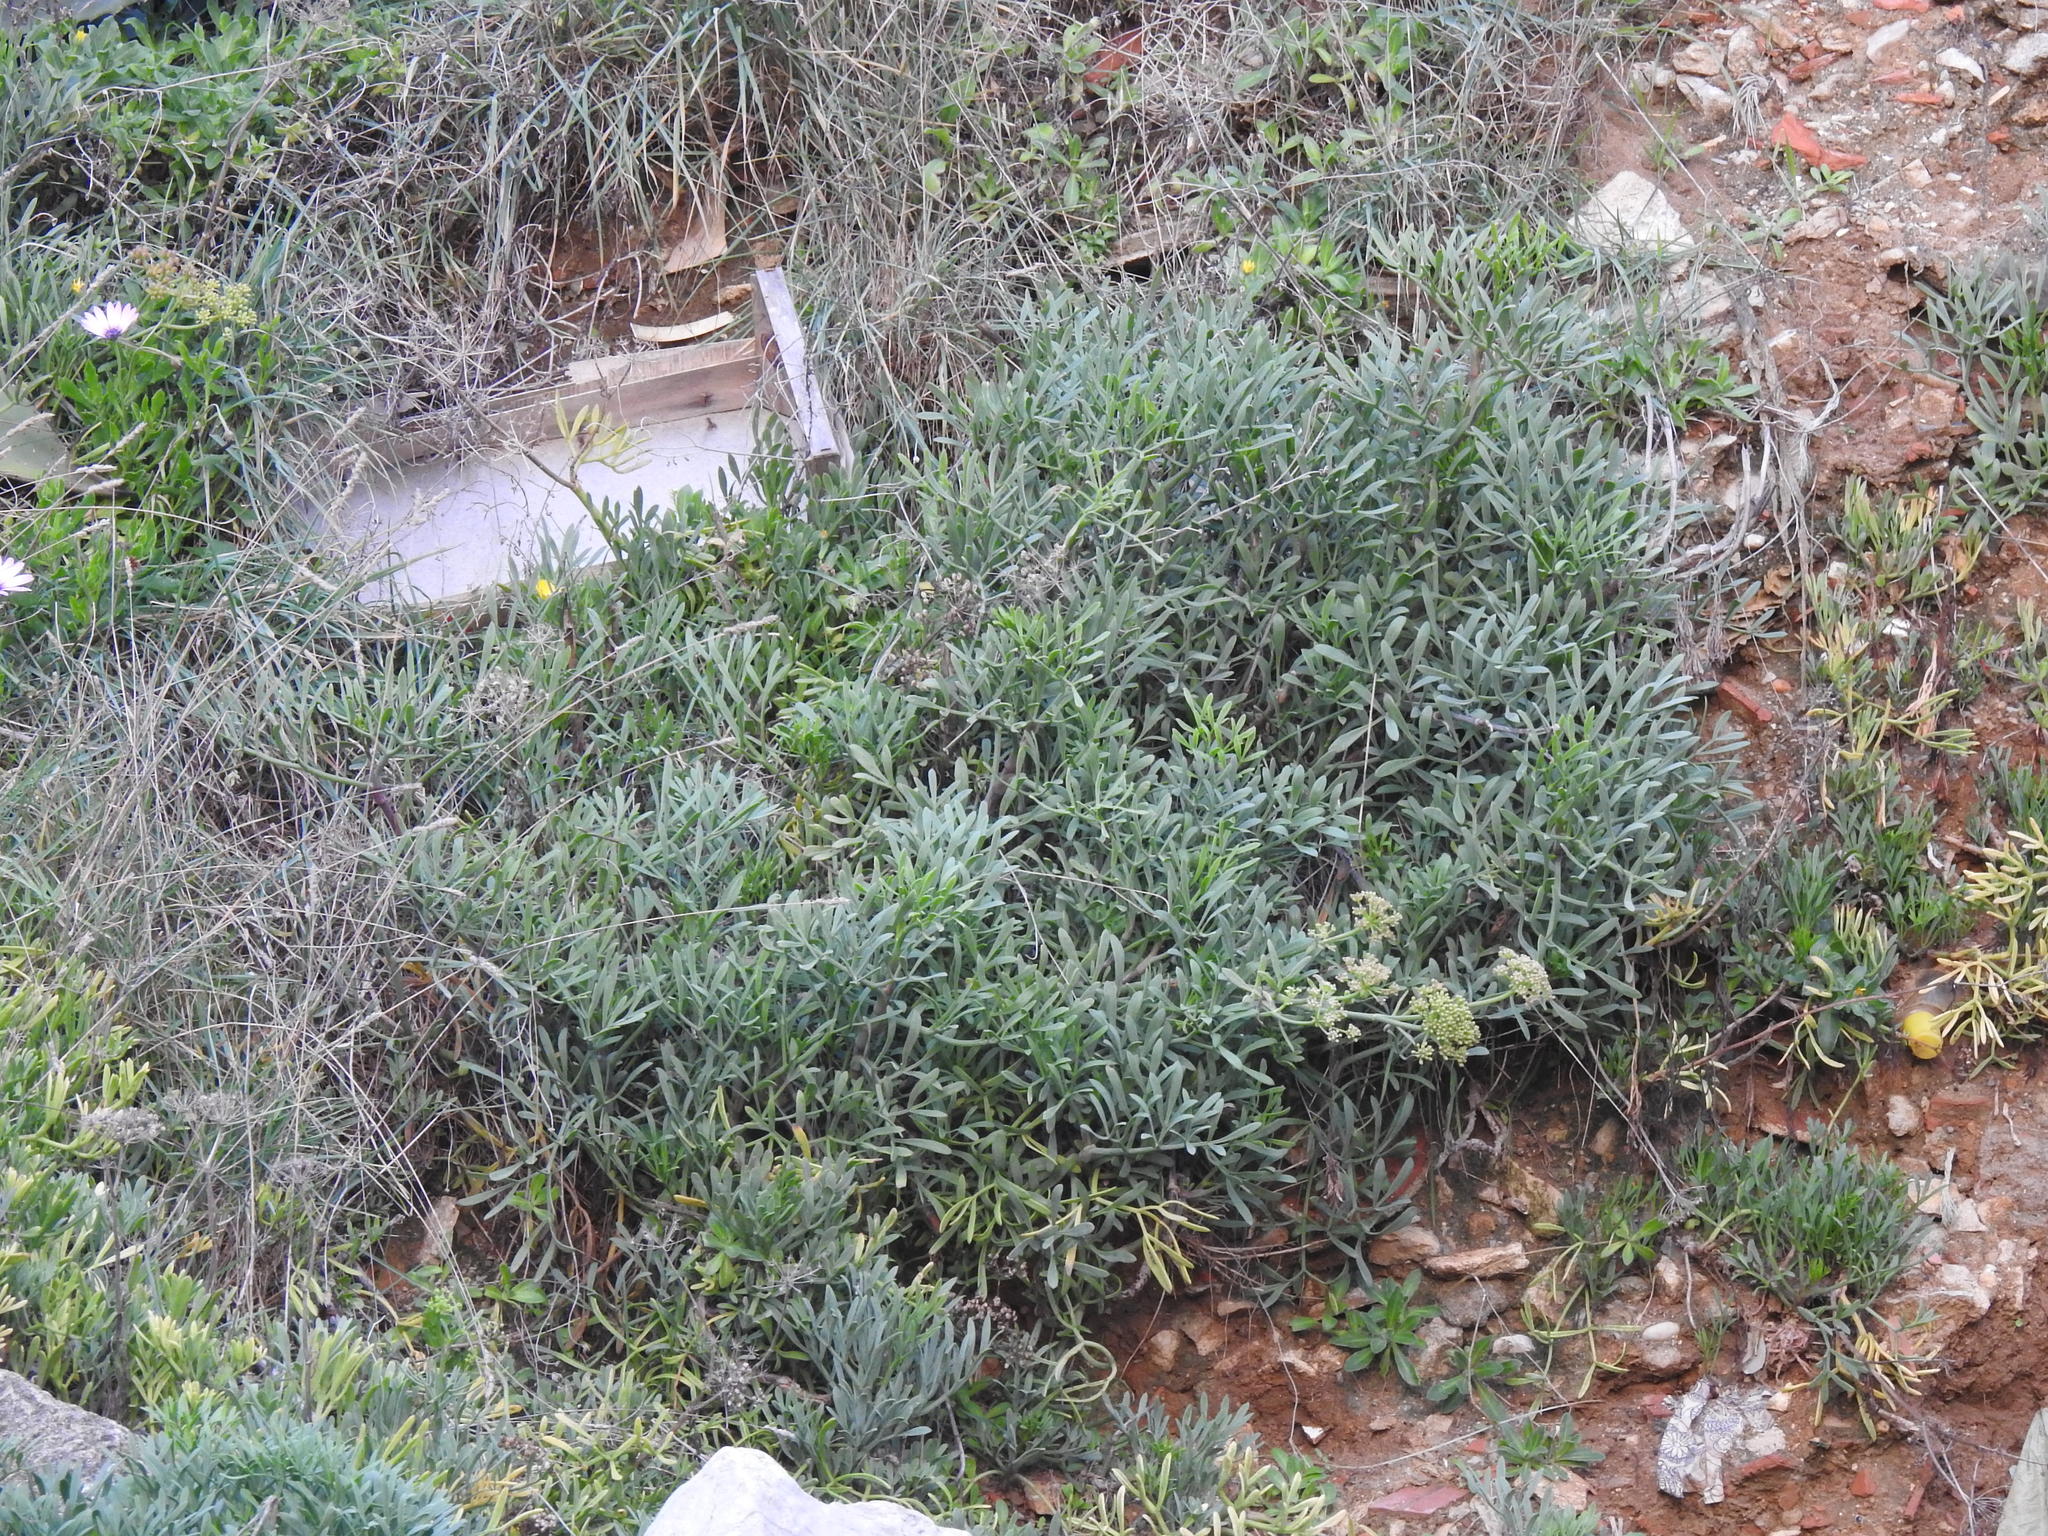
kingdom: Plantae
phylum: Tracheophyta
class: Magnoliopsida
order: Apiales
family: Apiaceae
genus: Crithmum
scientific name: Crithmum maritimum
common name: Rock samphire
